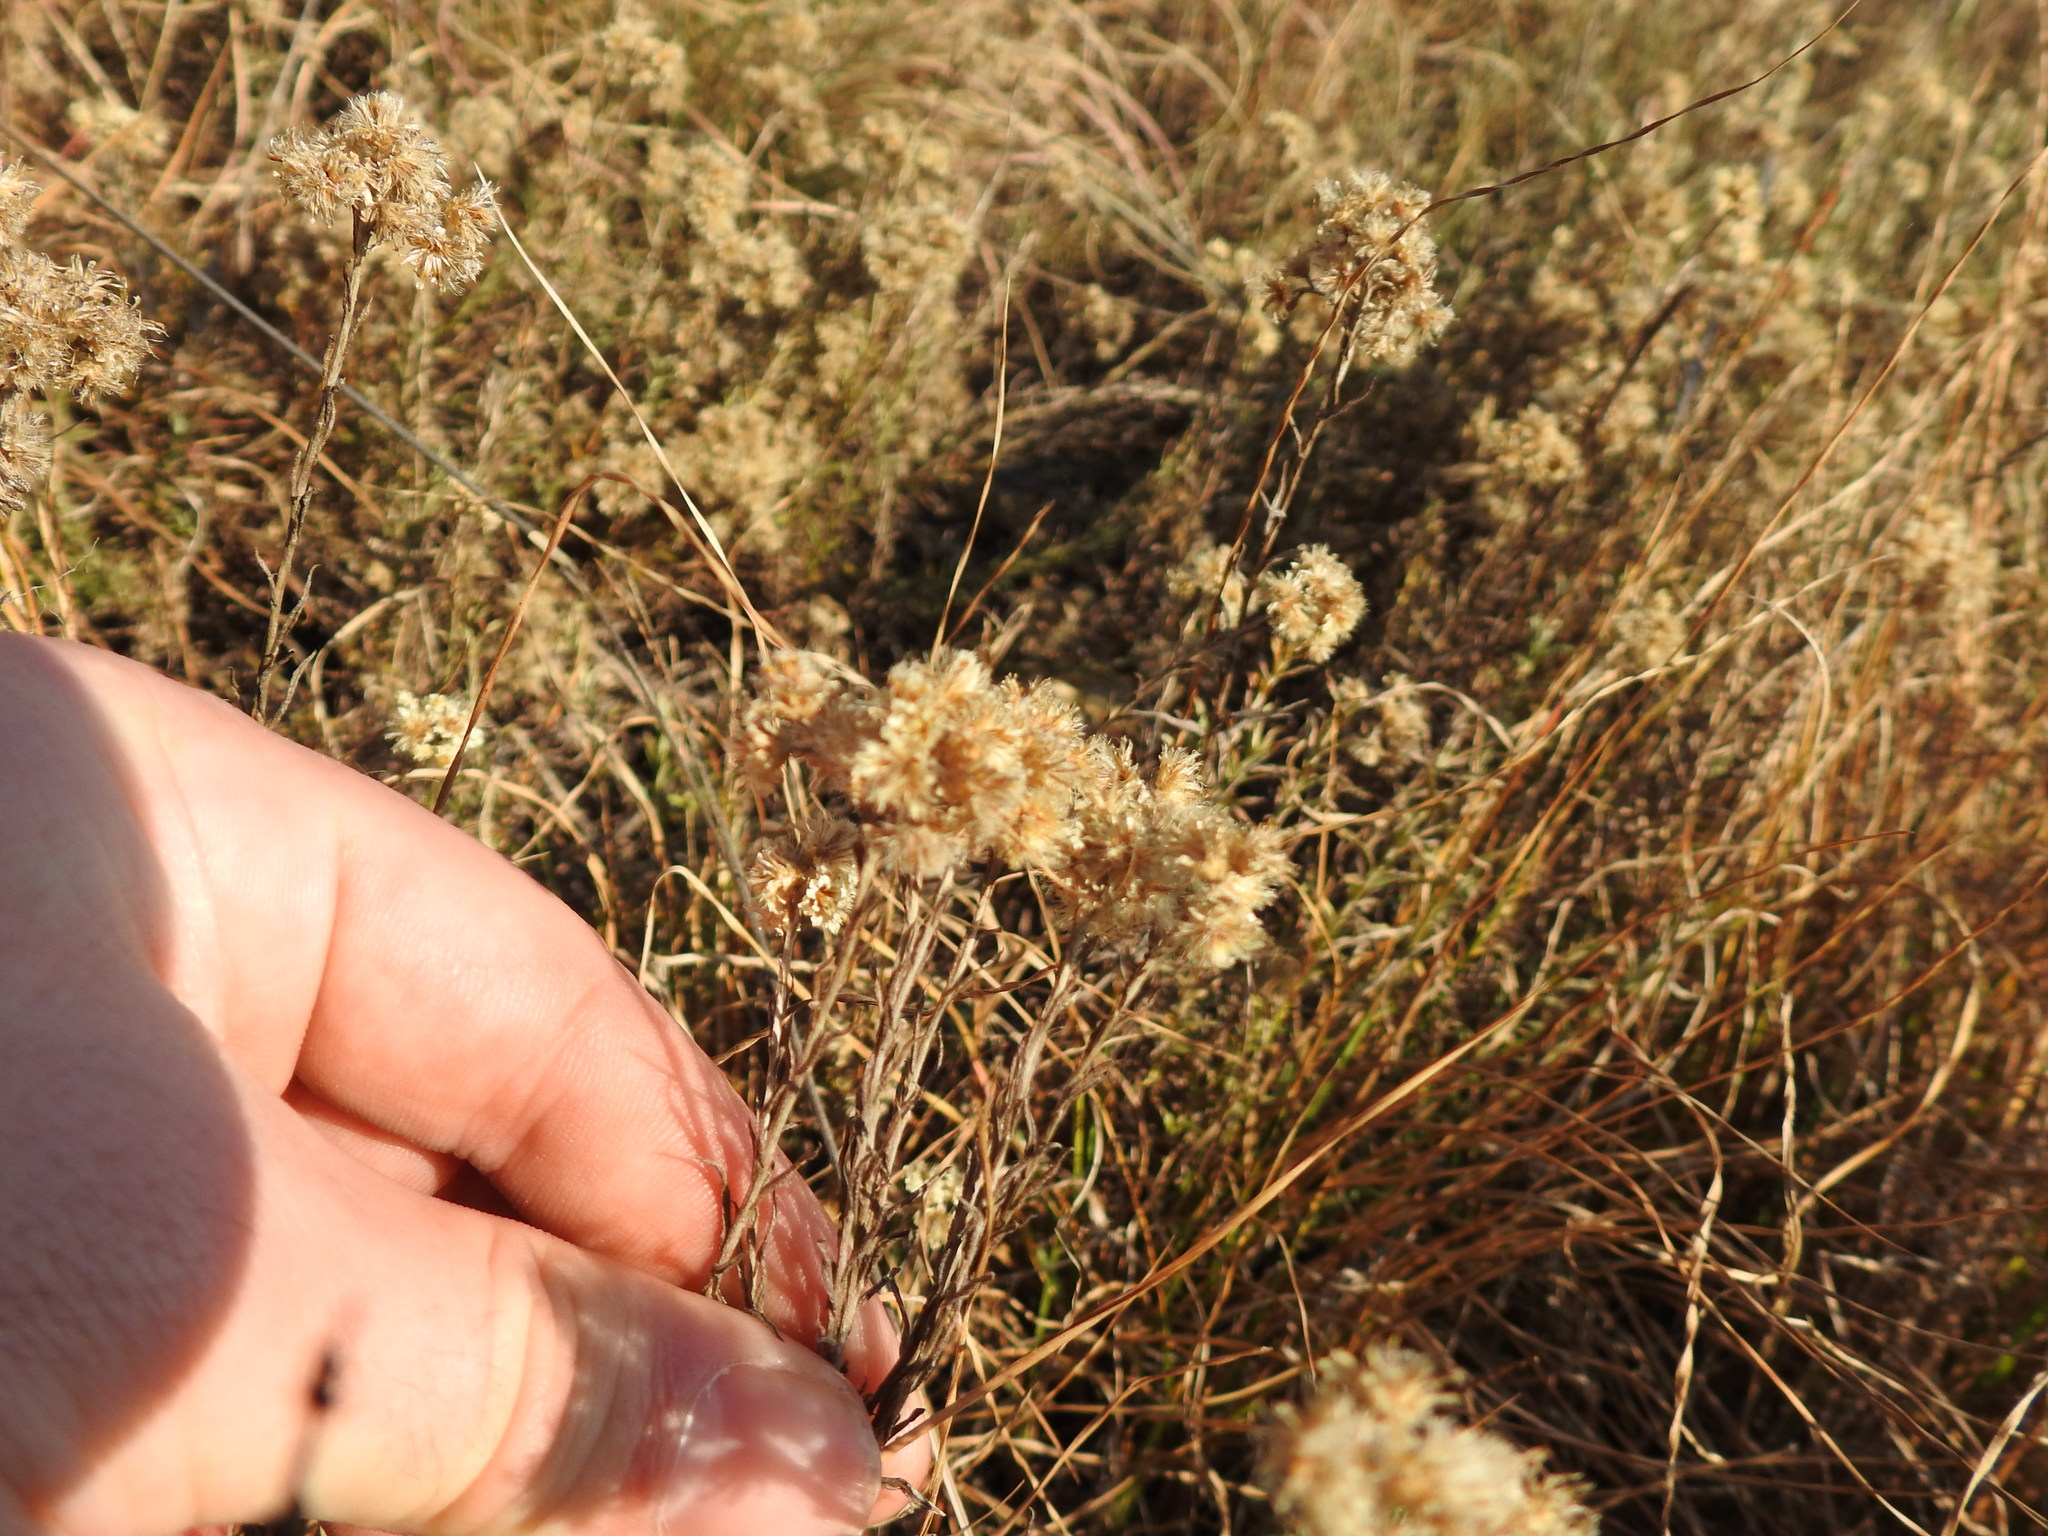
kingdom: Plantae
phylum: Tracheophyta
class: Magnoliopsida
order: Asterales
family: Asteraceae
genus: Helichrysum
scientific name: Helichrysum rugulosum
